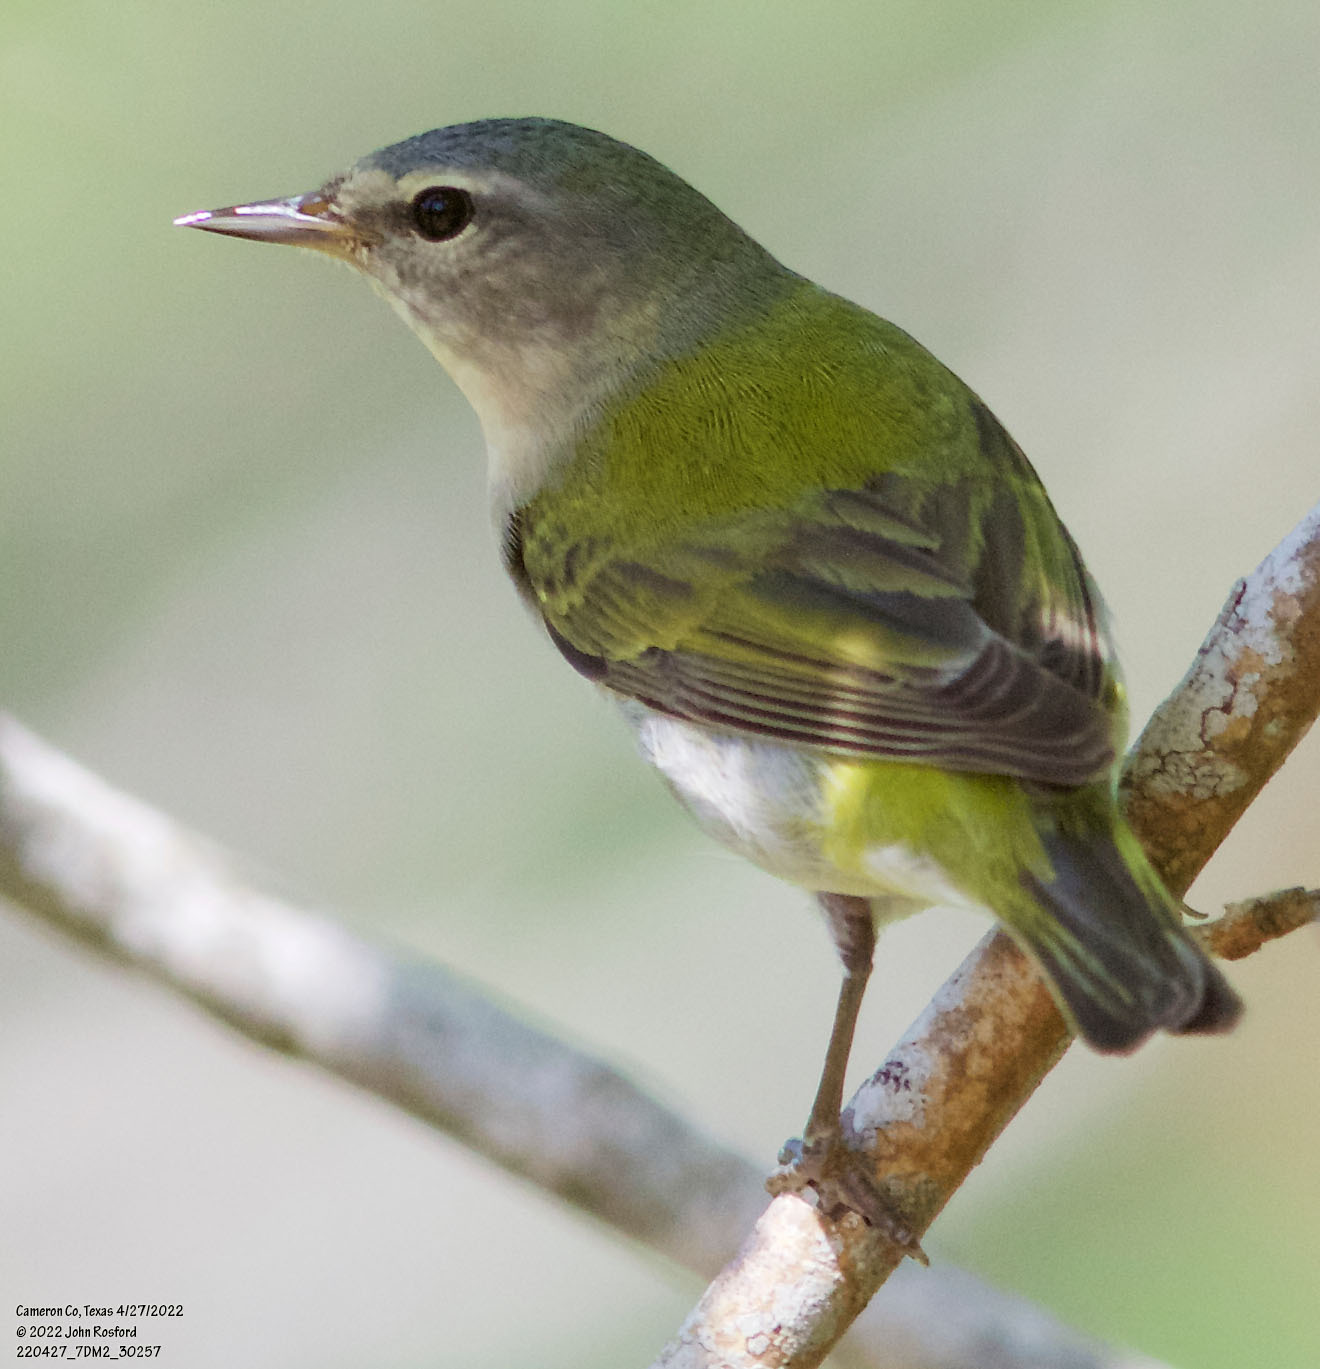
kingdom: Animalia
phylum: Chordata
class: Aves
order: Passeriformes
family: Parulidae
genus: Leiothlypis
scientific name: Leiothlypis peregrina
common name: Tennessee warbler
